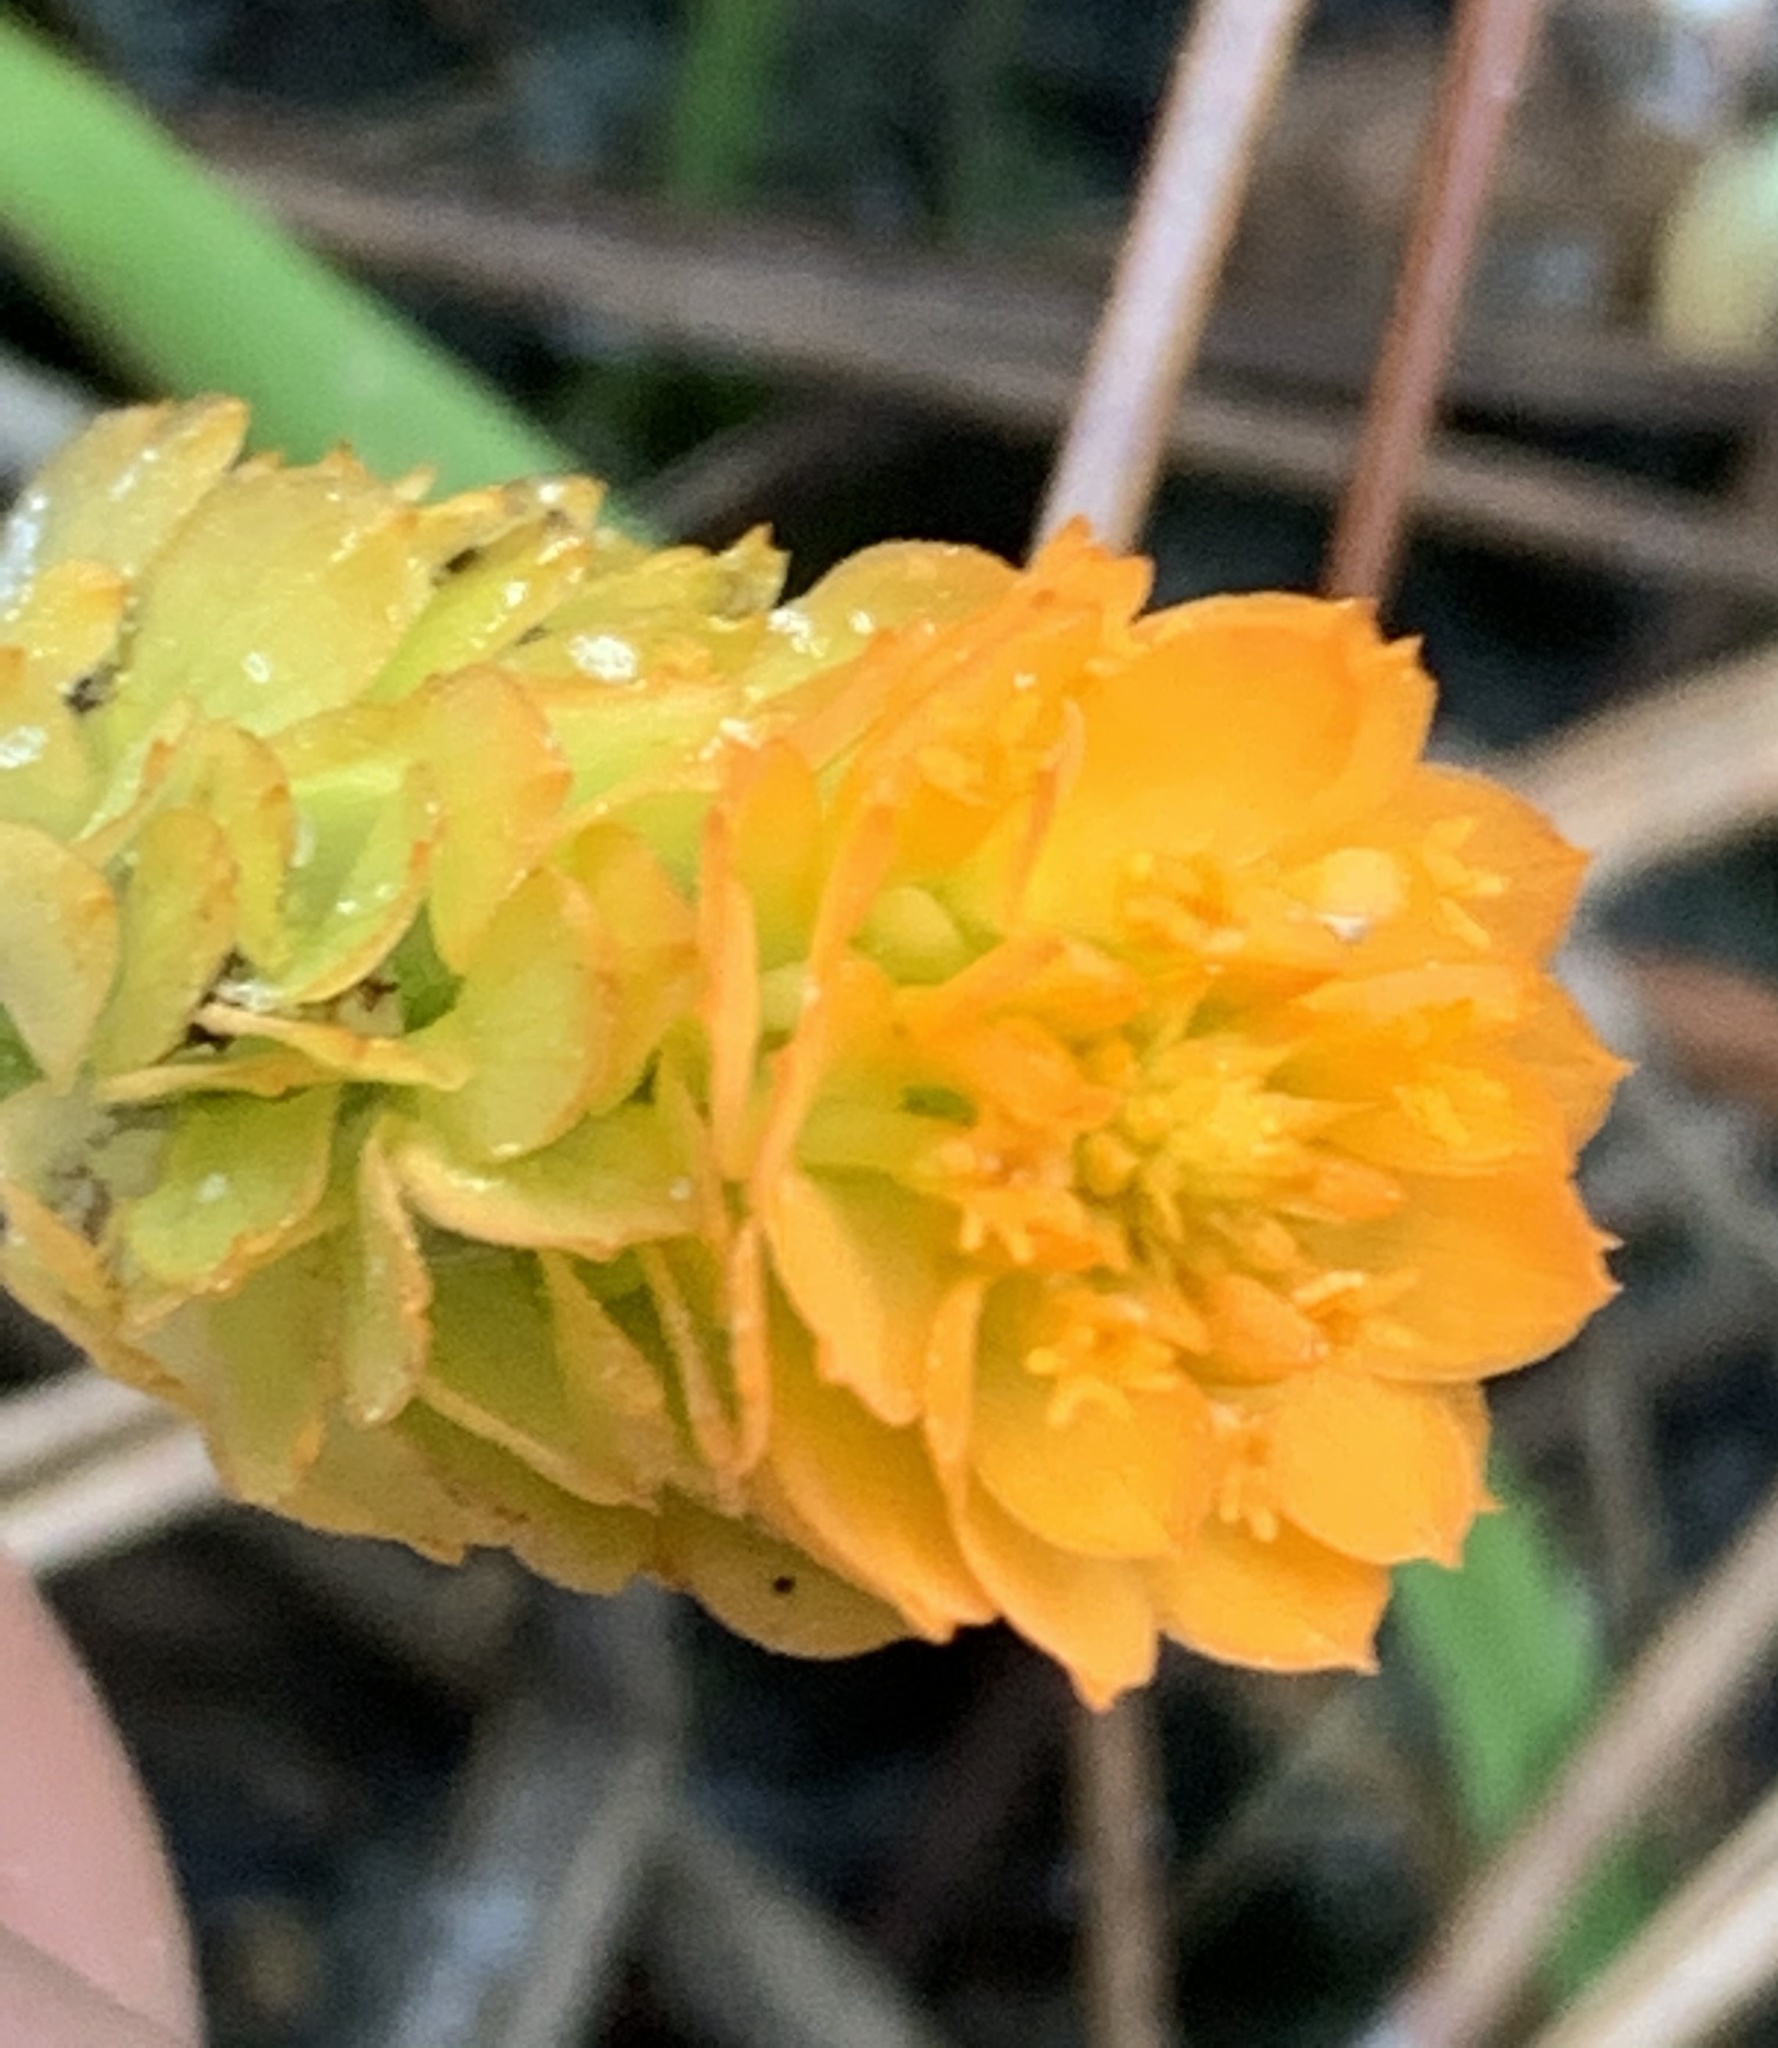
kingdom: Plantae
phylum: Tracheophyta
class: Magnoliopsida
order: Fabales
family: Polygalaceae
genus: Polygala
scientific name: Polygala lutea
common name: Orange milkwort
